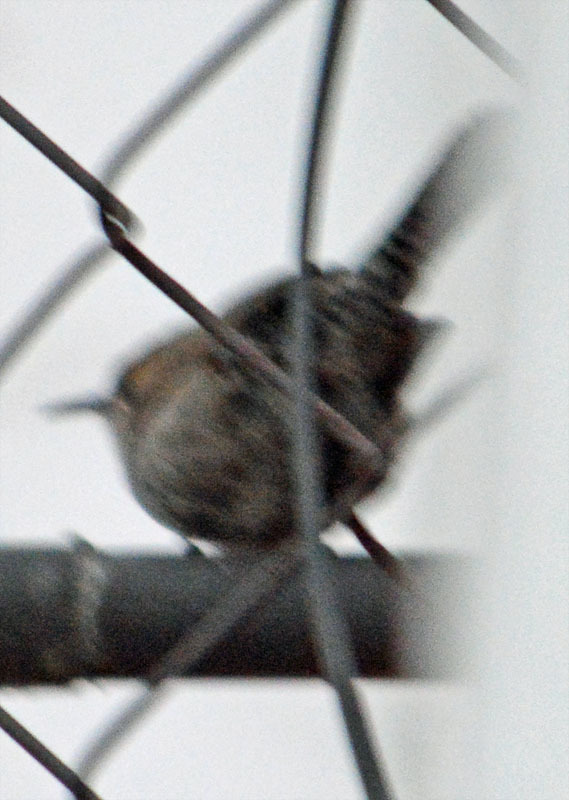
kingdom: Animalia
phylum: Chordata
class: Aves
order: Passeriformes
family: Troglodytidae
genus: Thryomanes
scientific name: Thryomanes bewickii
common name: Bewick's wren
